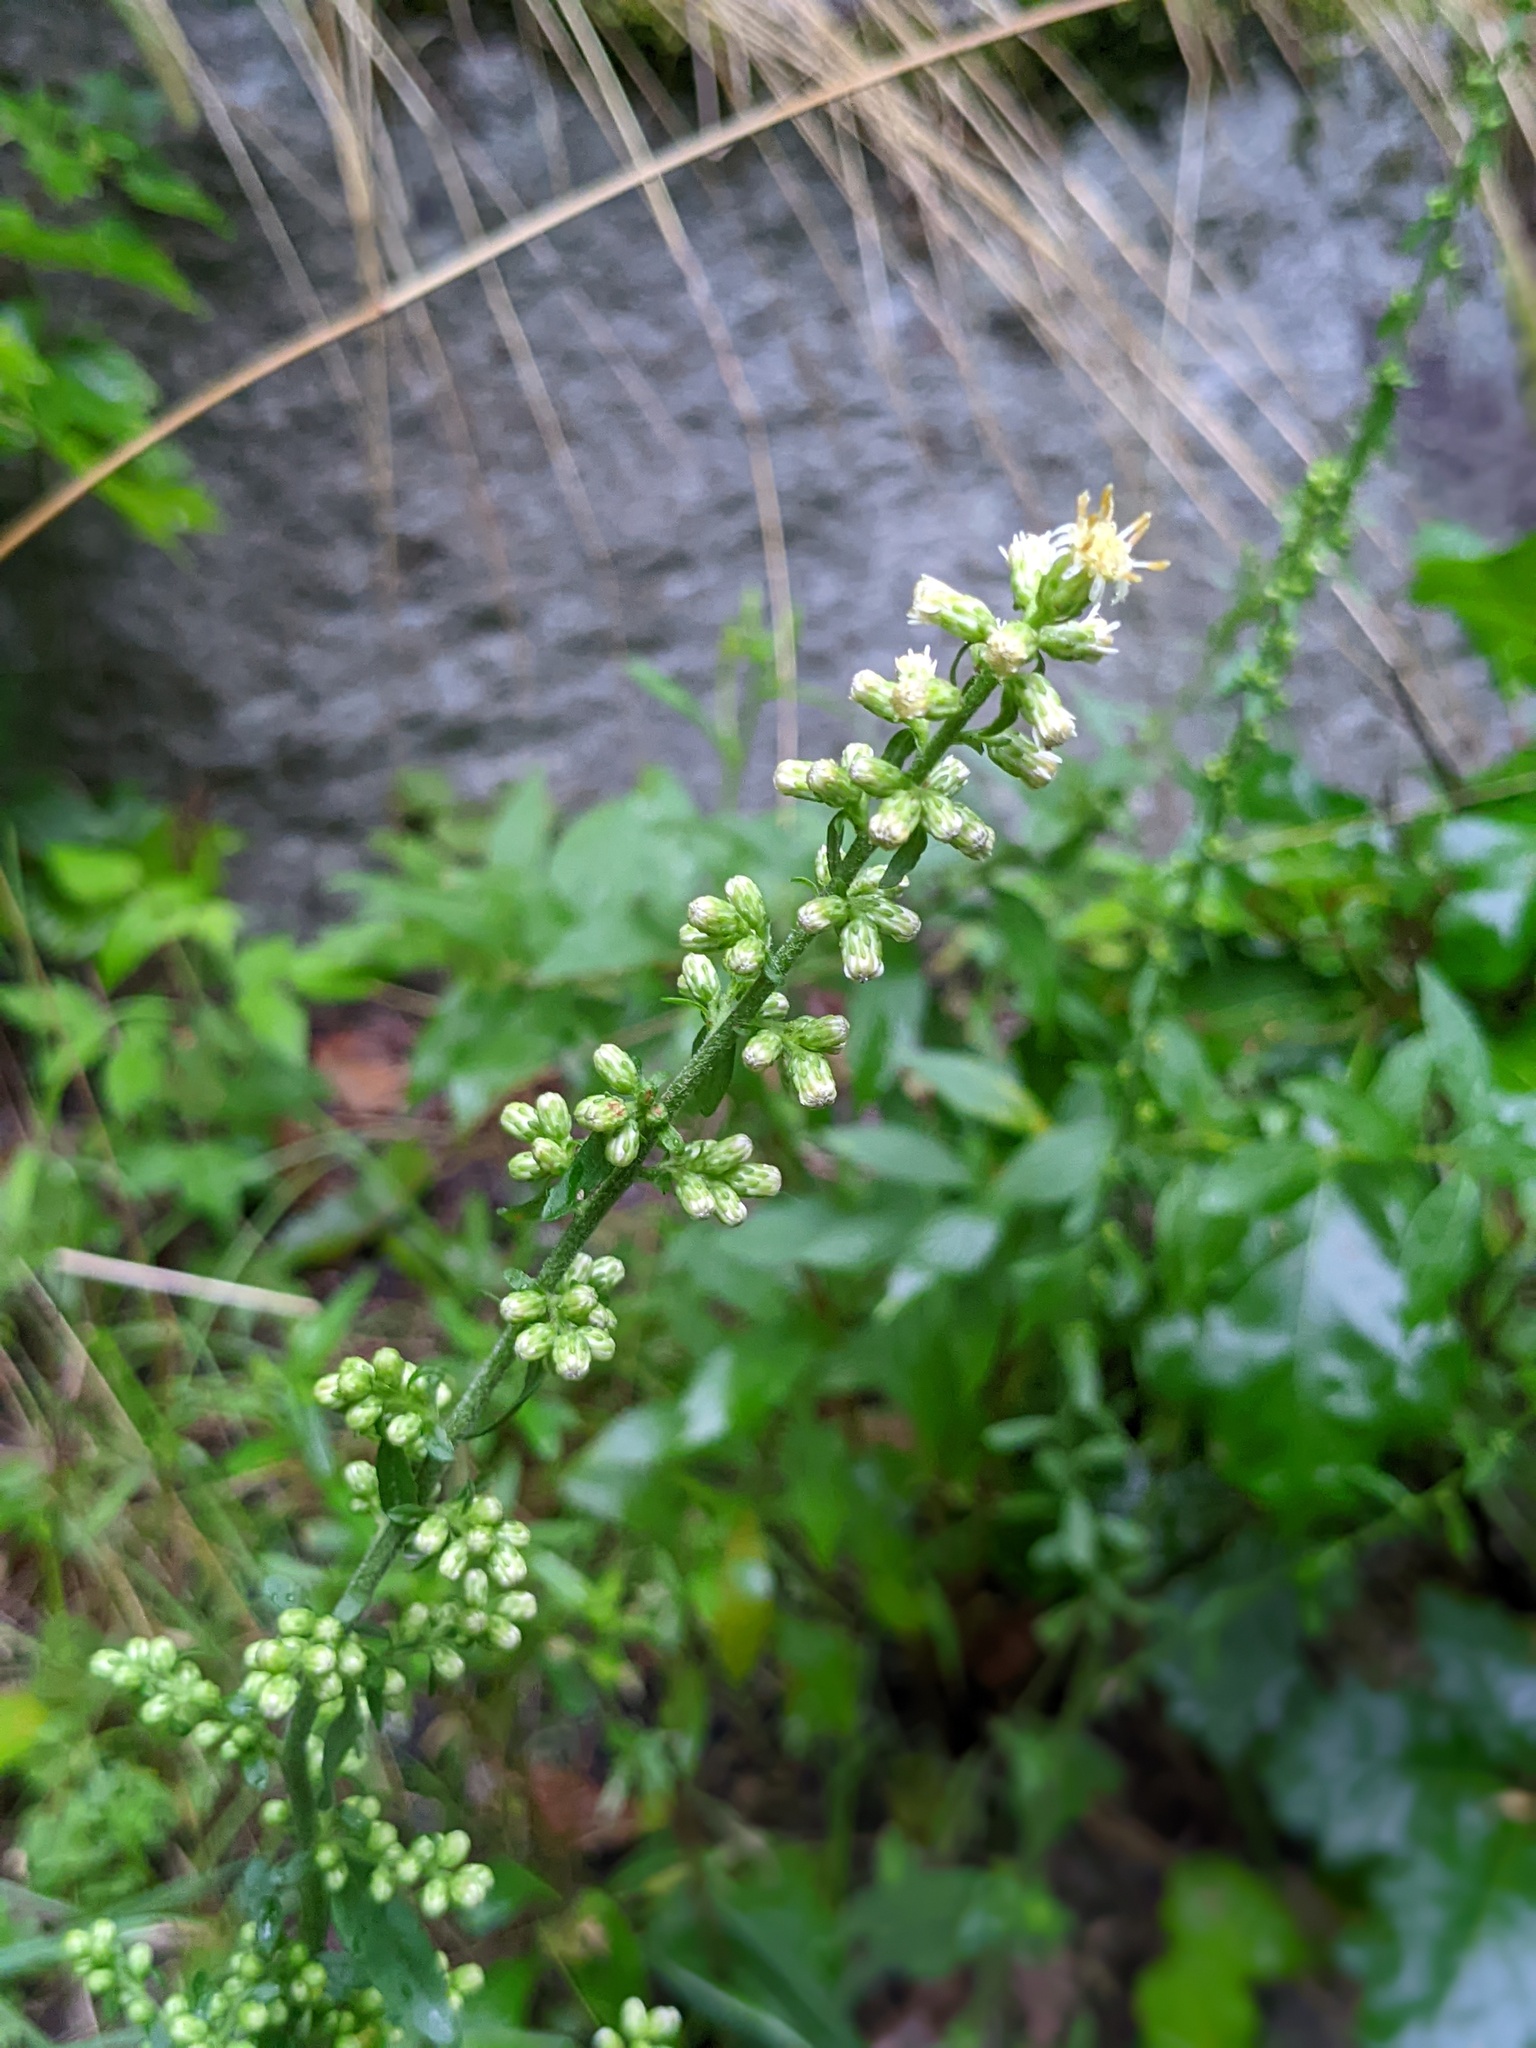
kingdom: Plantae
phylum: Tracheophyta
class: Magnoliopsida
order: Asterales
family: Asteraceae
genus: Solidago
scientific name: Solidago bicolor
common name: Silverrod
